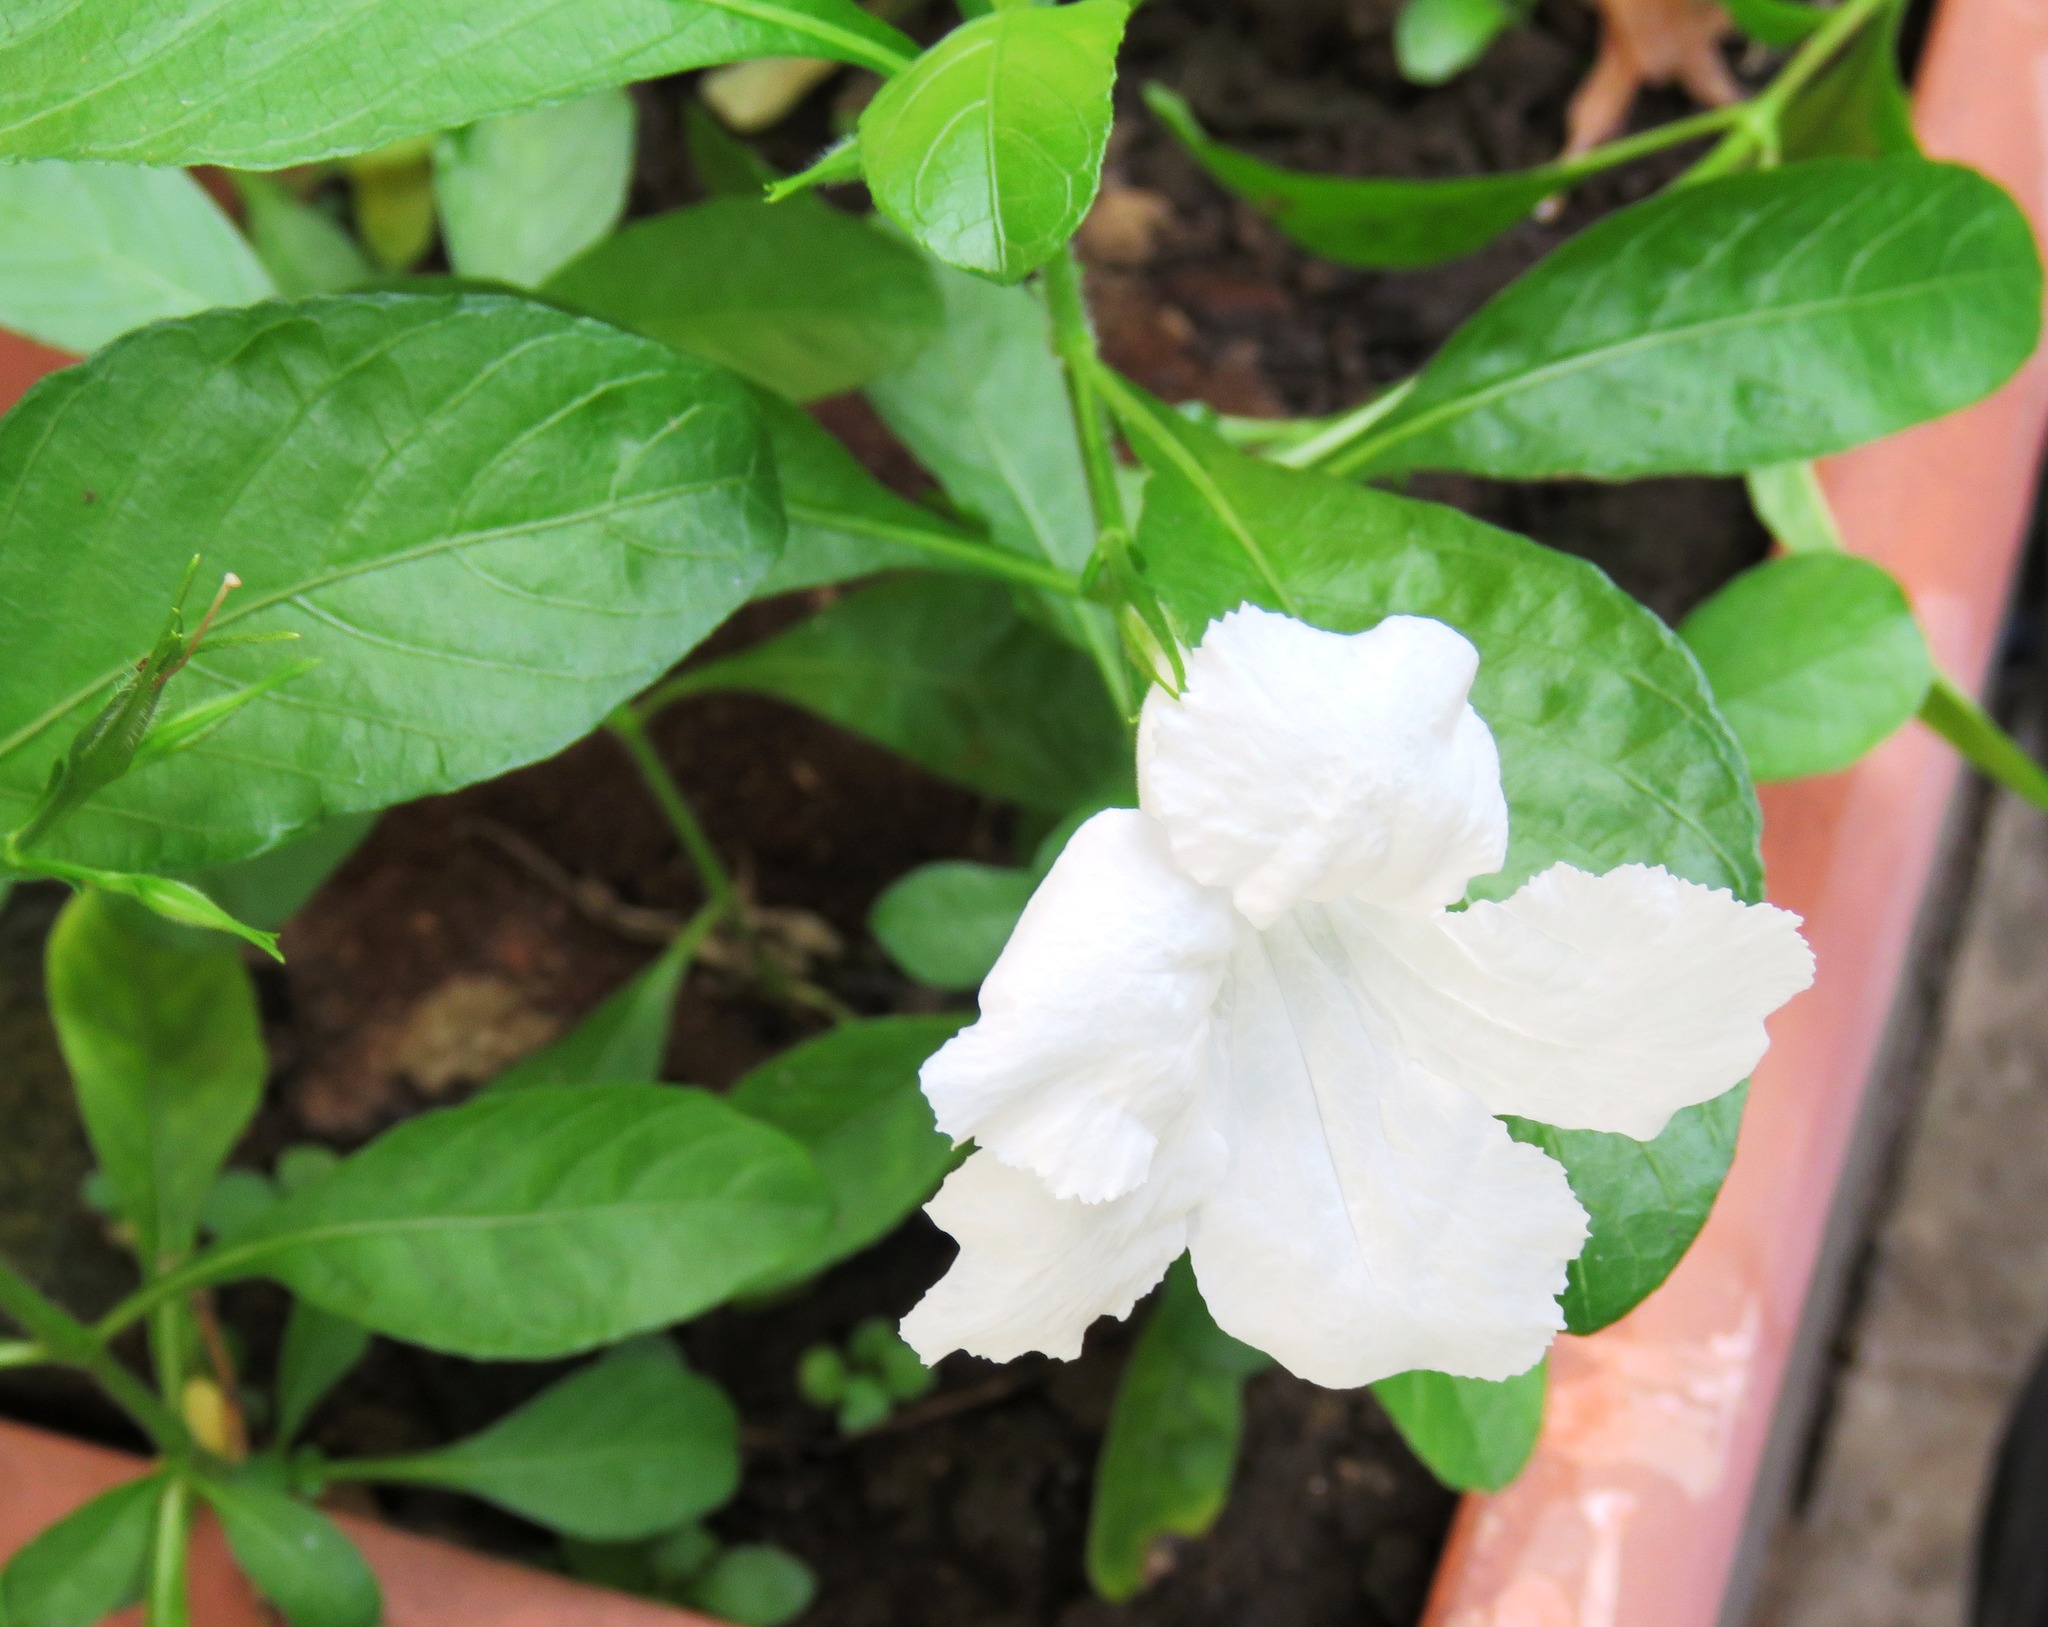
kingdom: Plantae
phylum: Tracheophyta
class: Magnoliopsida
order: Lamiales
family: Acanthaceae
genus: Ruellia
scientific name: Ruellia tuberosa
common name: Devil's bit
